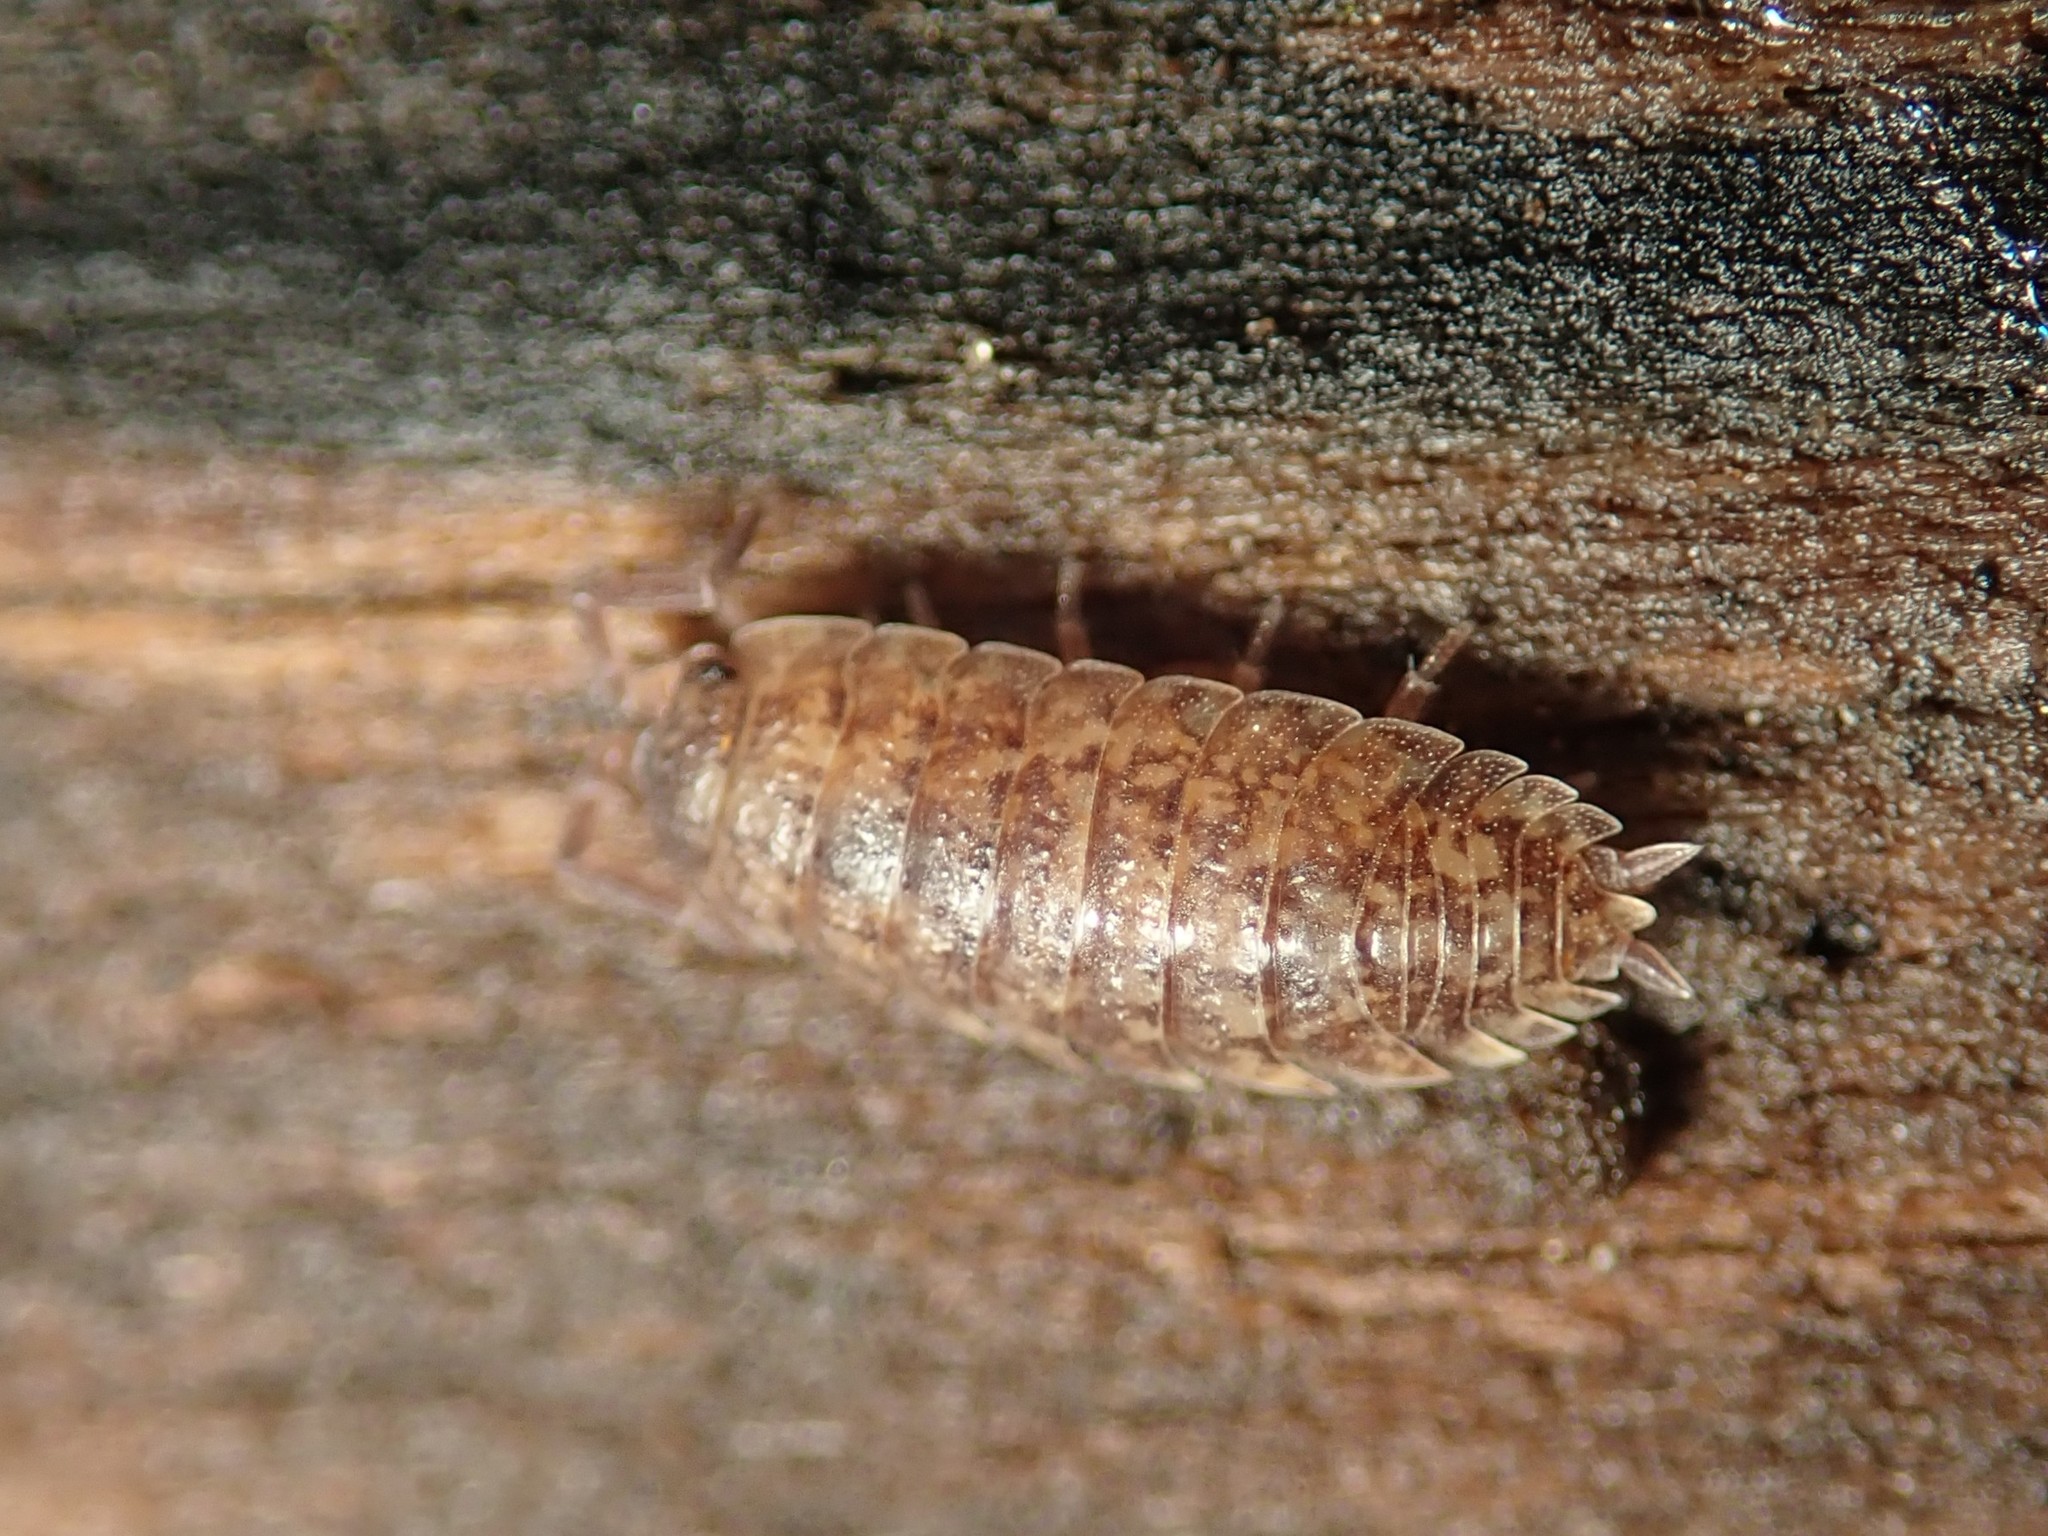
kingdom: Animalia
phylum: Arthropoda
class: Malacostraca
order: Isopoda
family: Porcellionidae
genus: Porcellio
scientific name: Porcellio scaber
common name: Common rough woodlouse
